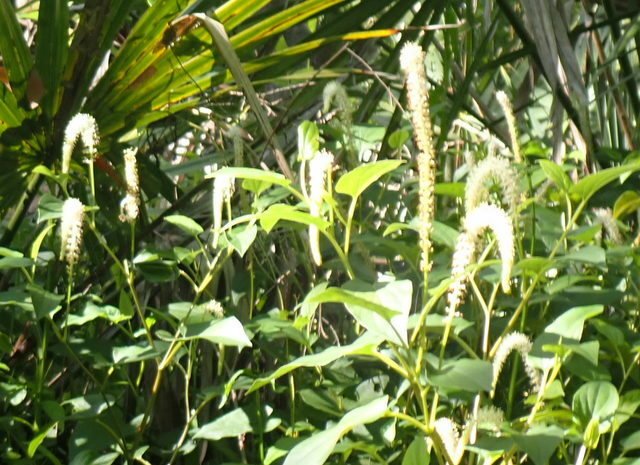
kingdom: Plantae
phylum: Tracheophyta
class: Magnoliopsida
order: Piperales
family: Saururaceae
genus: Saururus
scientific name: Saururus cernuus
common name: Lizard's-tail
